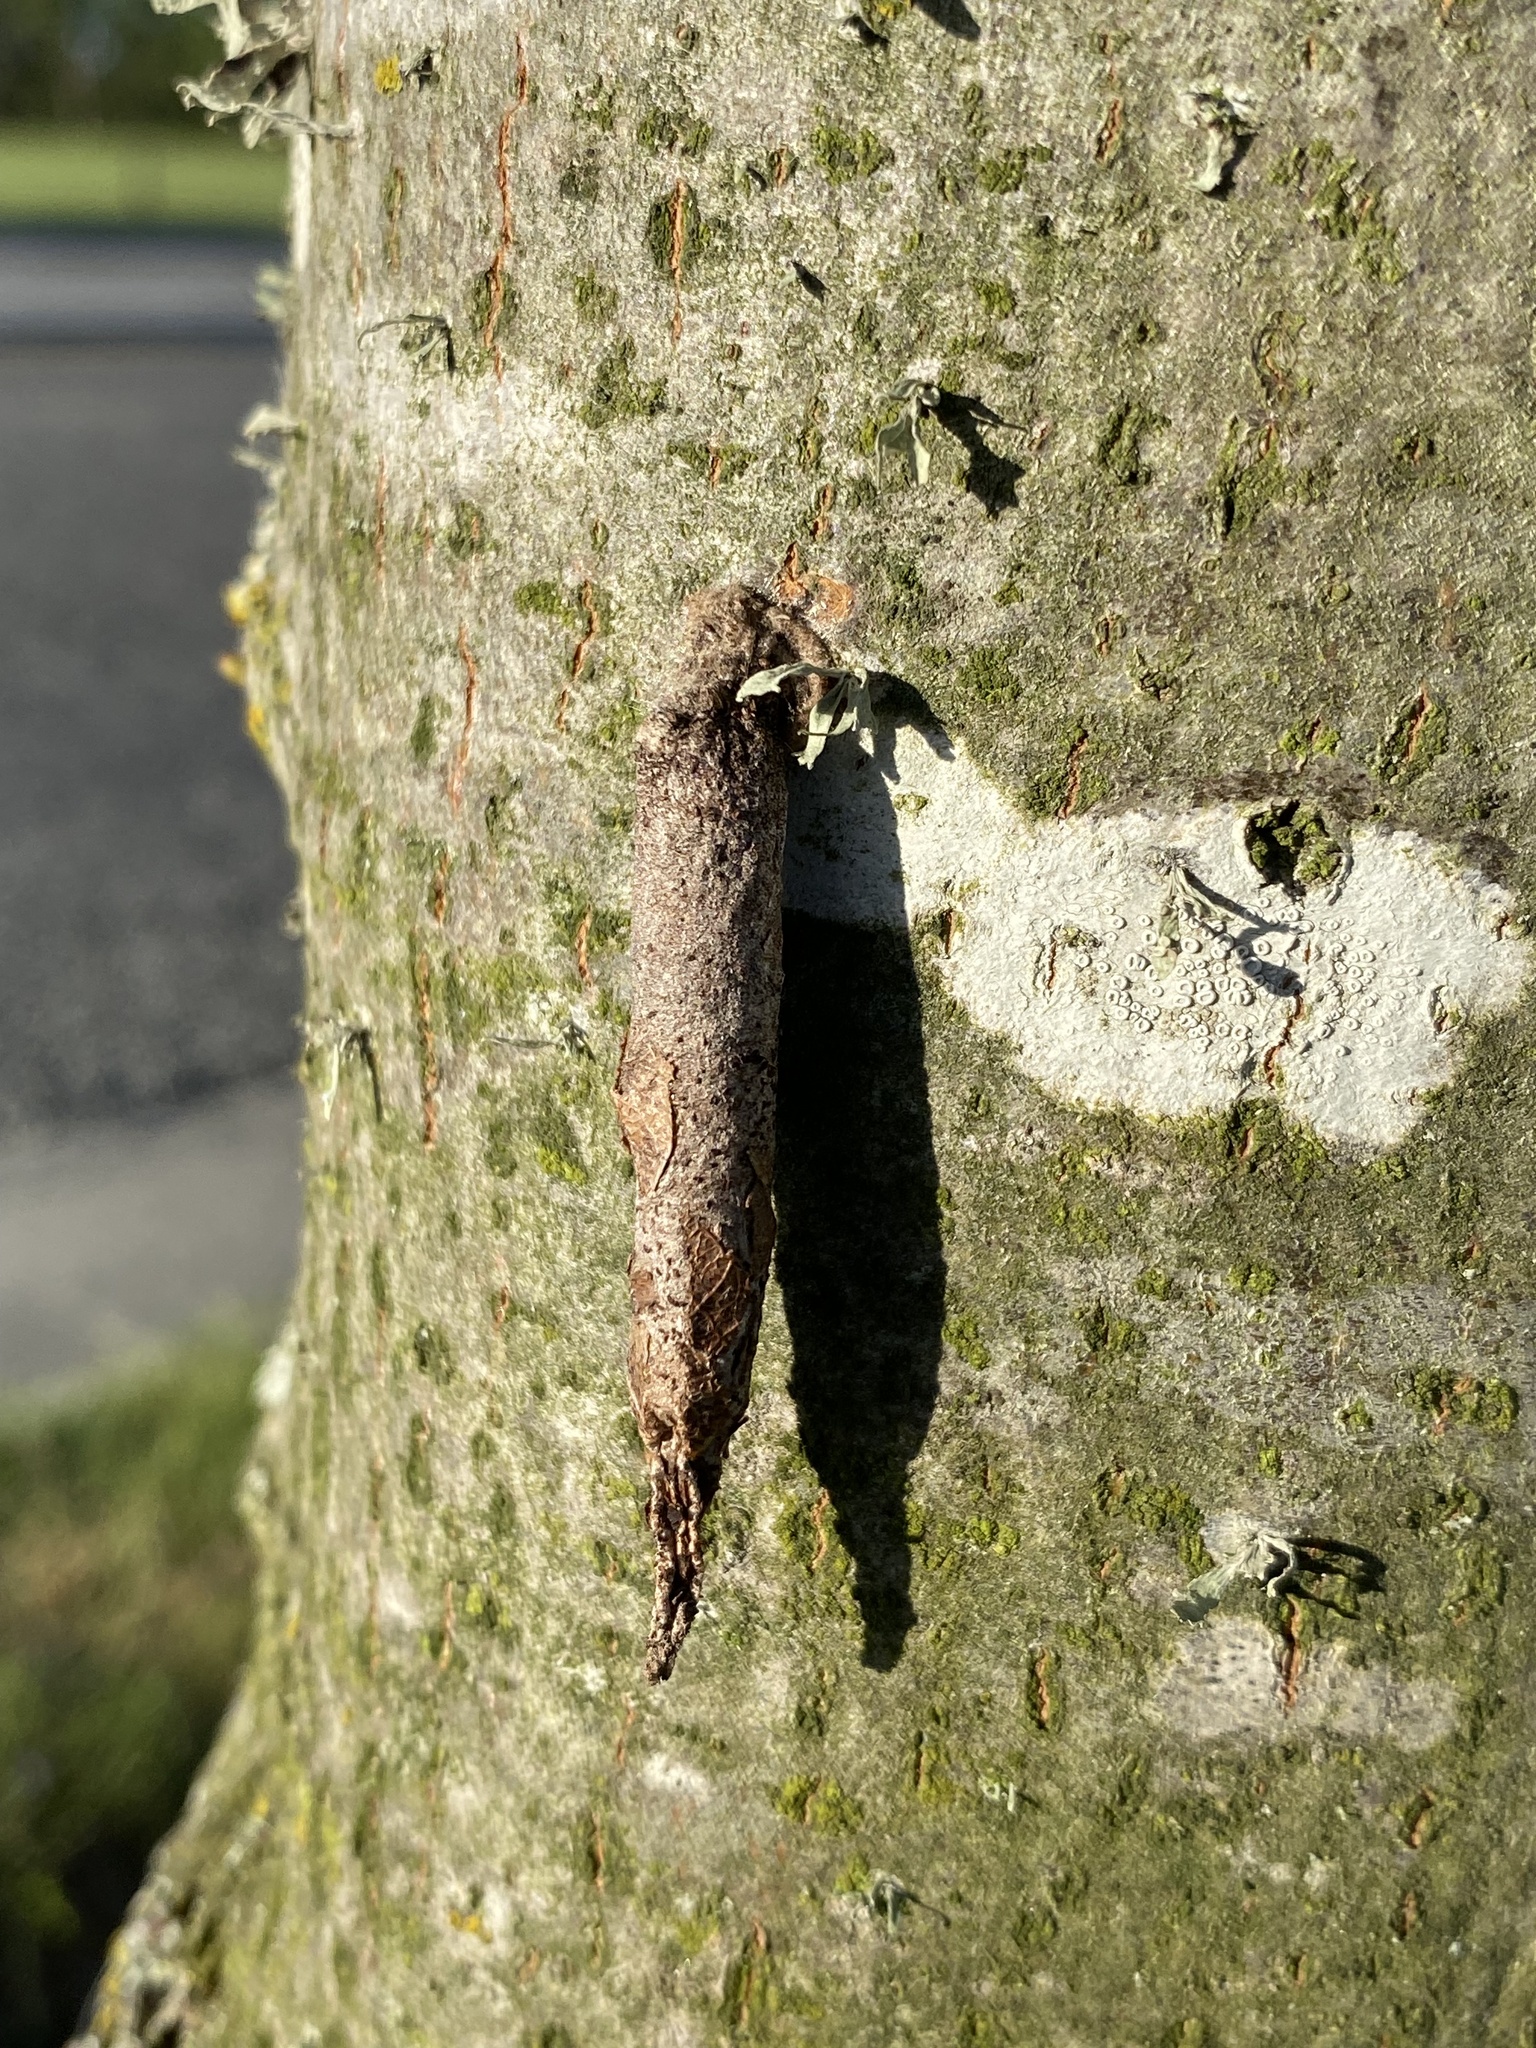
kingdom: Animalia
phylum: Arthropoda
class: Insecta
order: Lepidoptera
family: Psychidae
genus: Liothula
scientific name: Liothula omnivora
